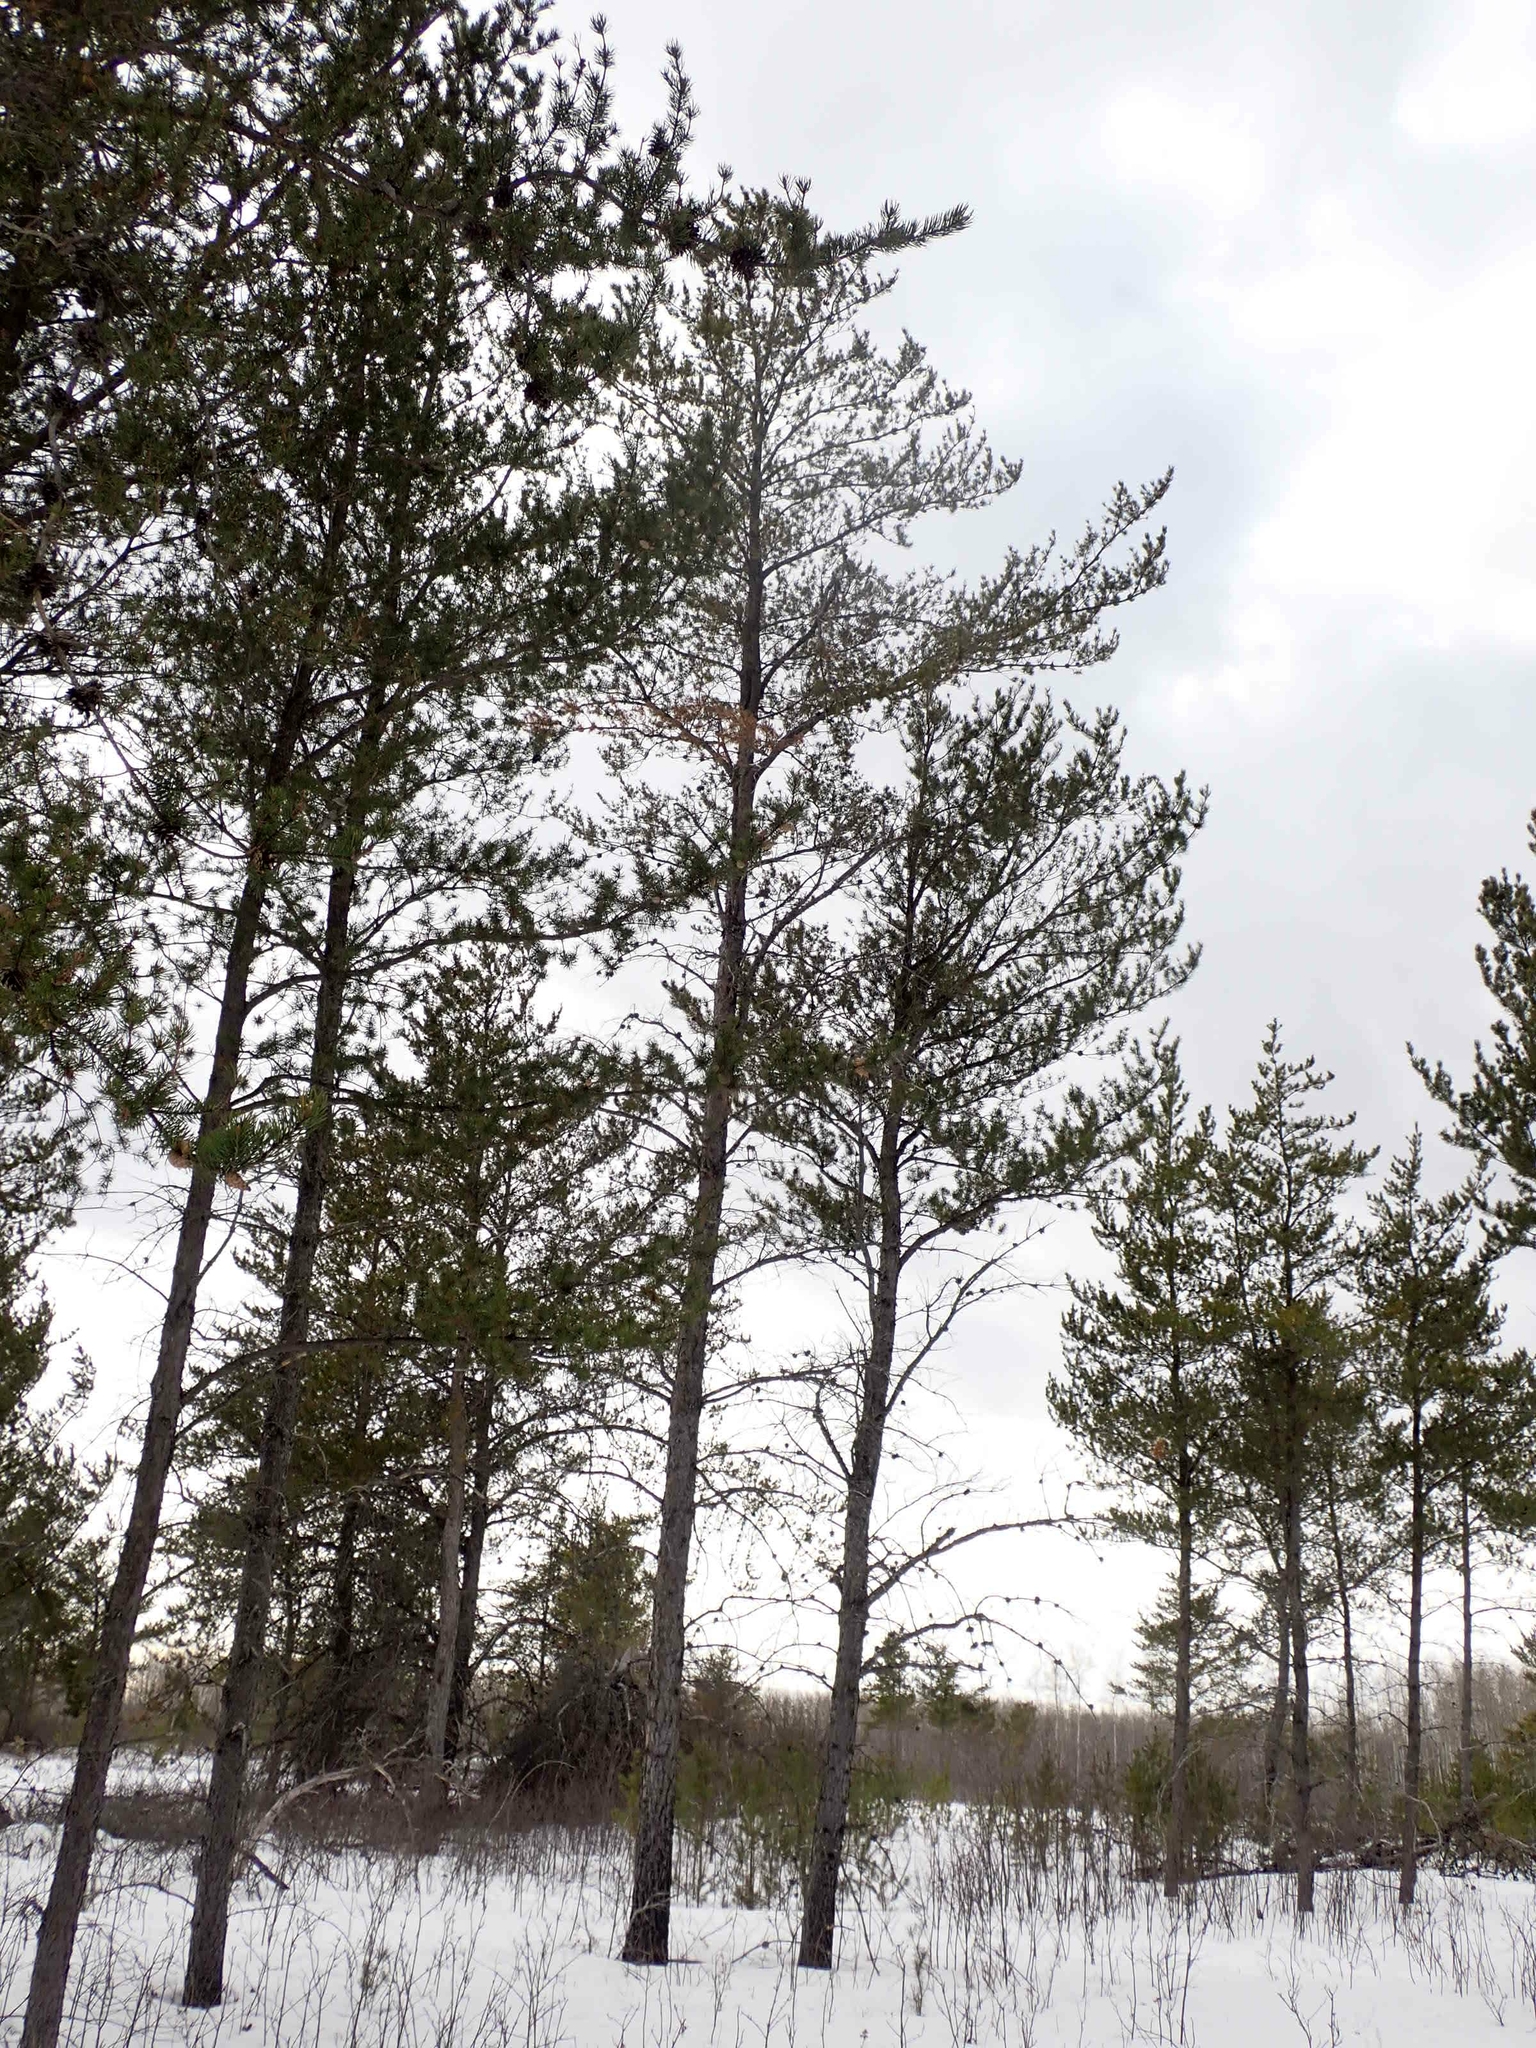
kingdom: Plantae
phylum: Tracheophyta
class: Pinopsida
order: Pinales
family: Pinaceae
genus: Pinus
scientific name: Pinus banksiana
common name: Jack pine
